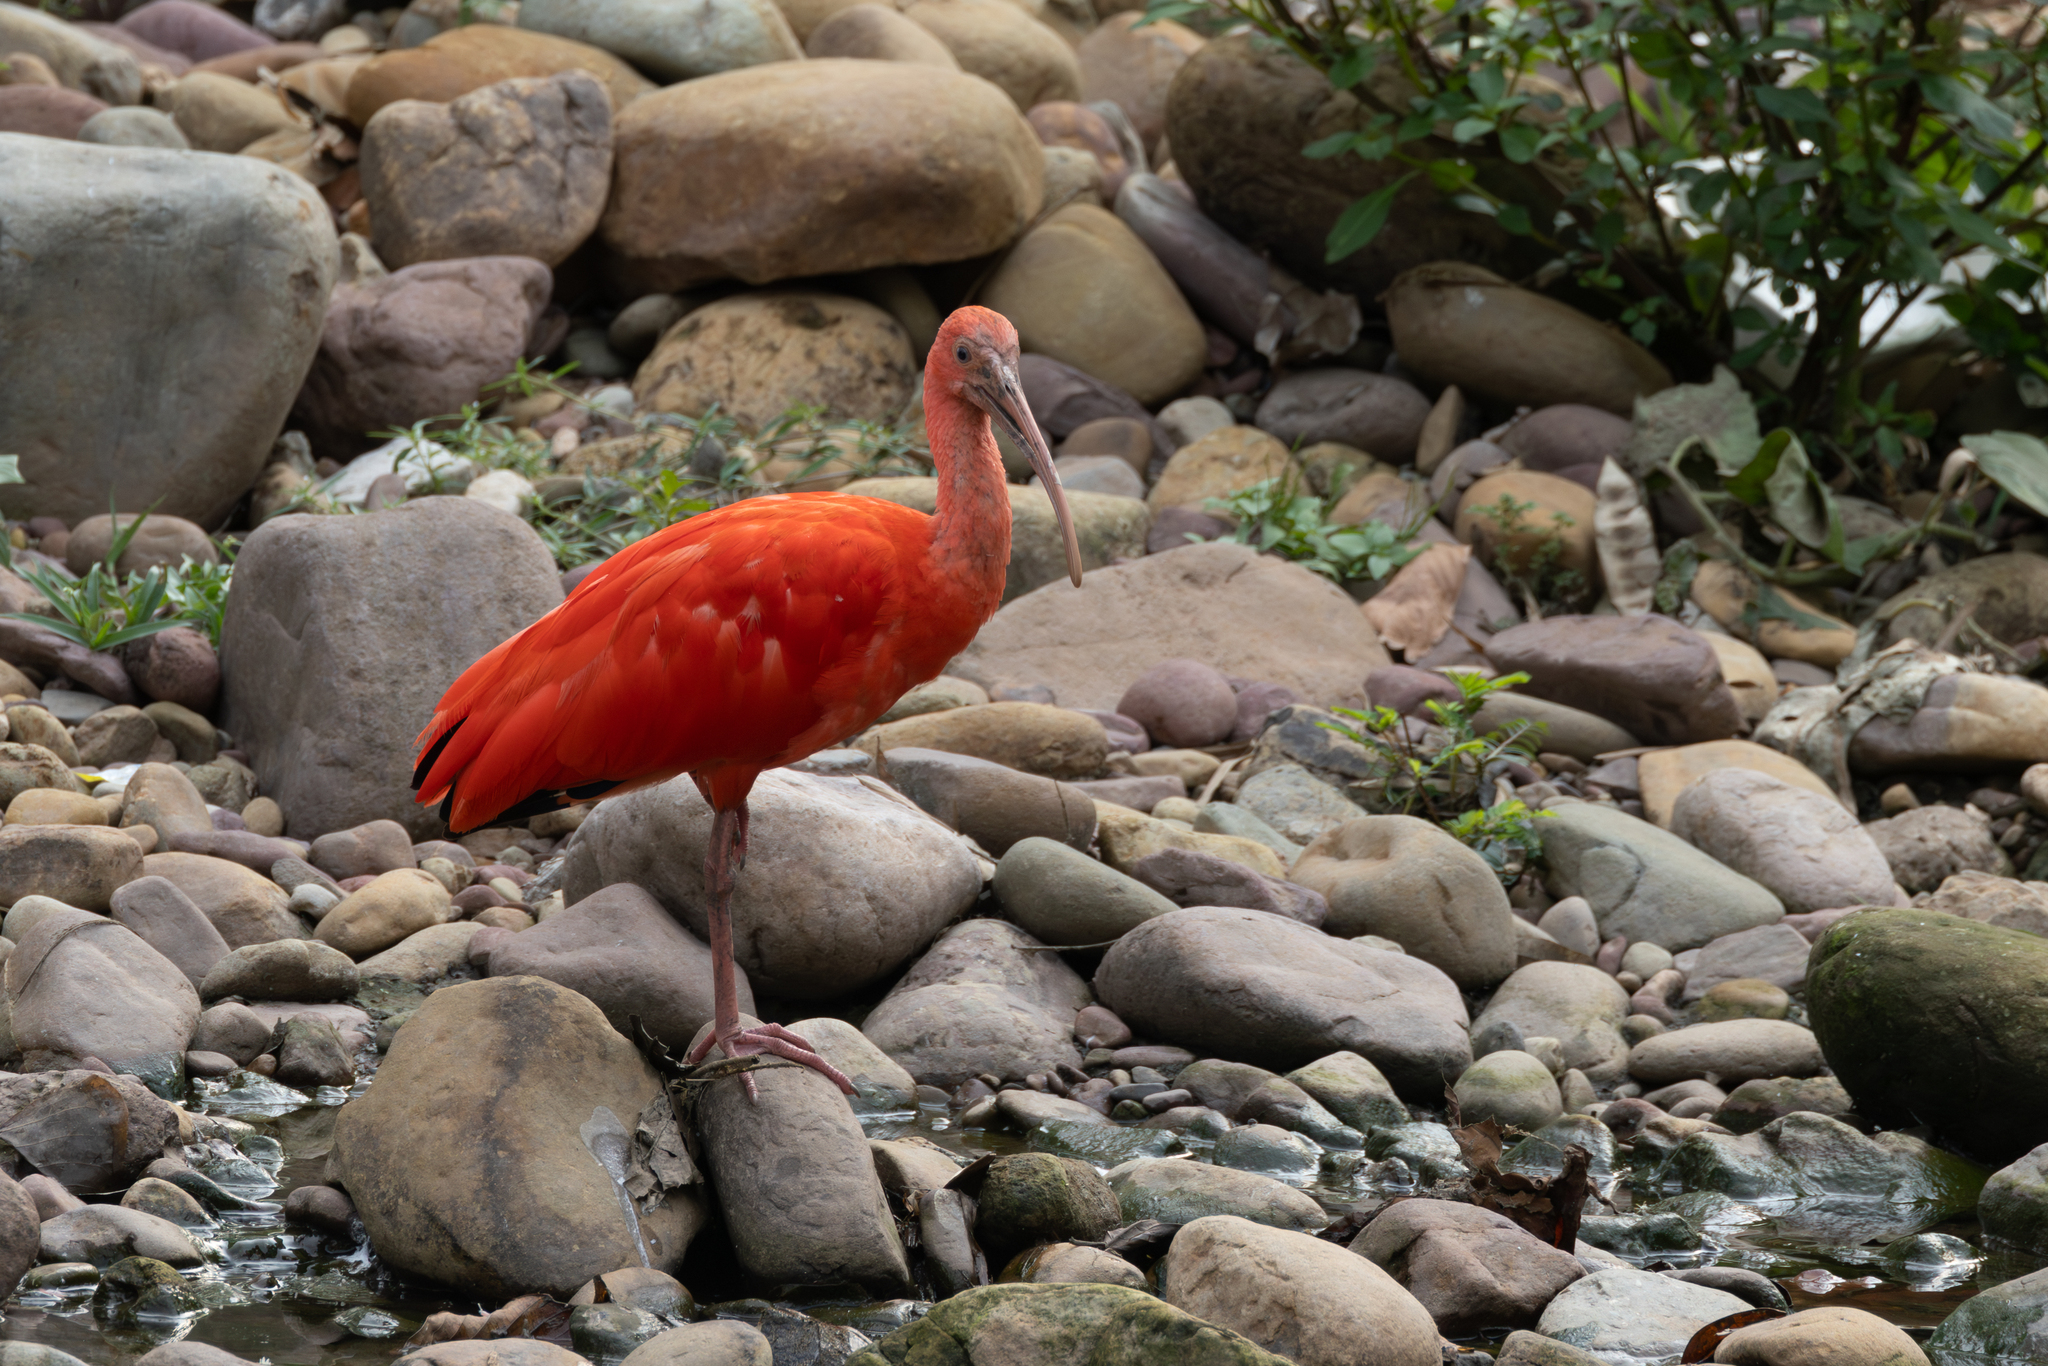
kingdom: Animalia
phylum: Chordata
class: Aves
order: Pelecaniformes
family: Threskiornithidae
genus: Eudocimus
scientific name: Eudocimus ruber
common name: Scarlet ibis
